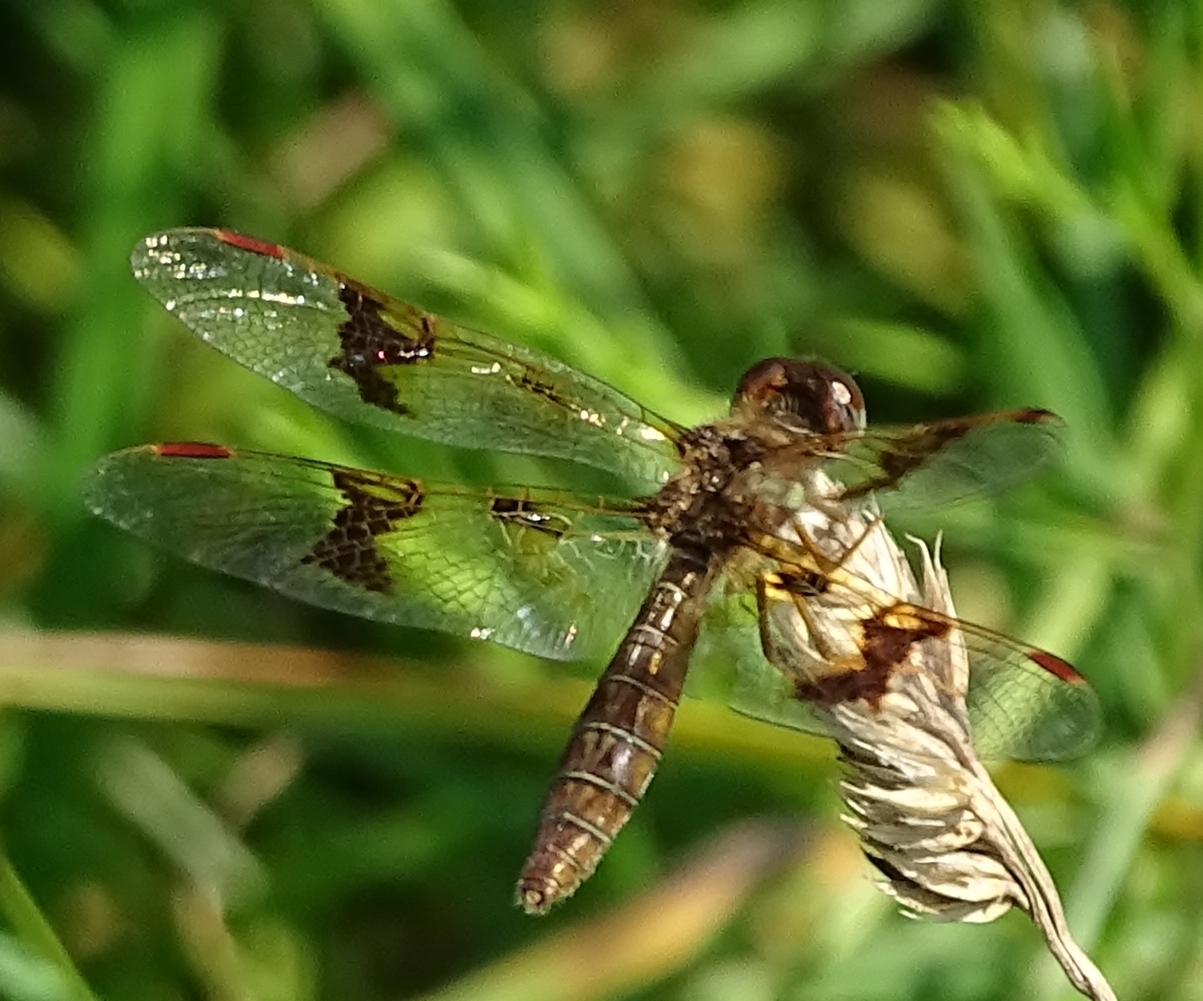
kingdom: Animalia
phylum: Arthropoda
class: Insecta
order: Odonata
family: Libellulidae
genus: Perithemis
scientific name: Perithemis tenera
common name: Eastern amberwing
